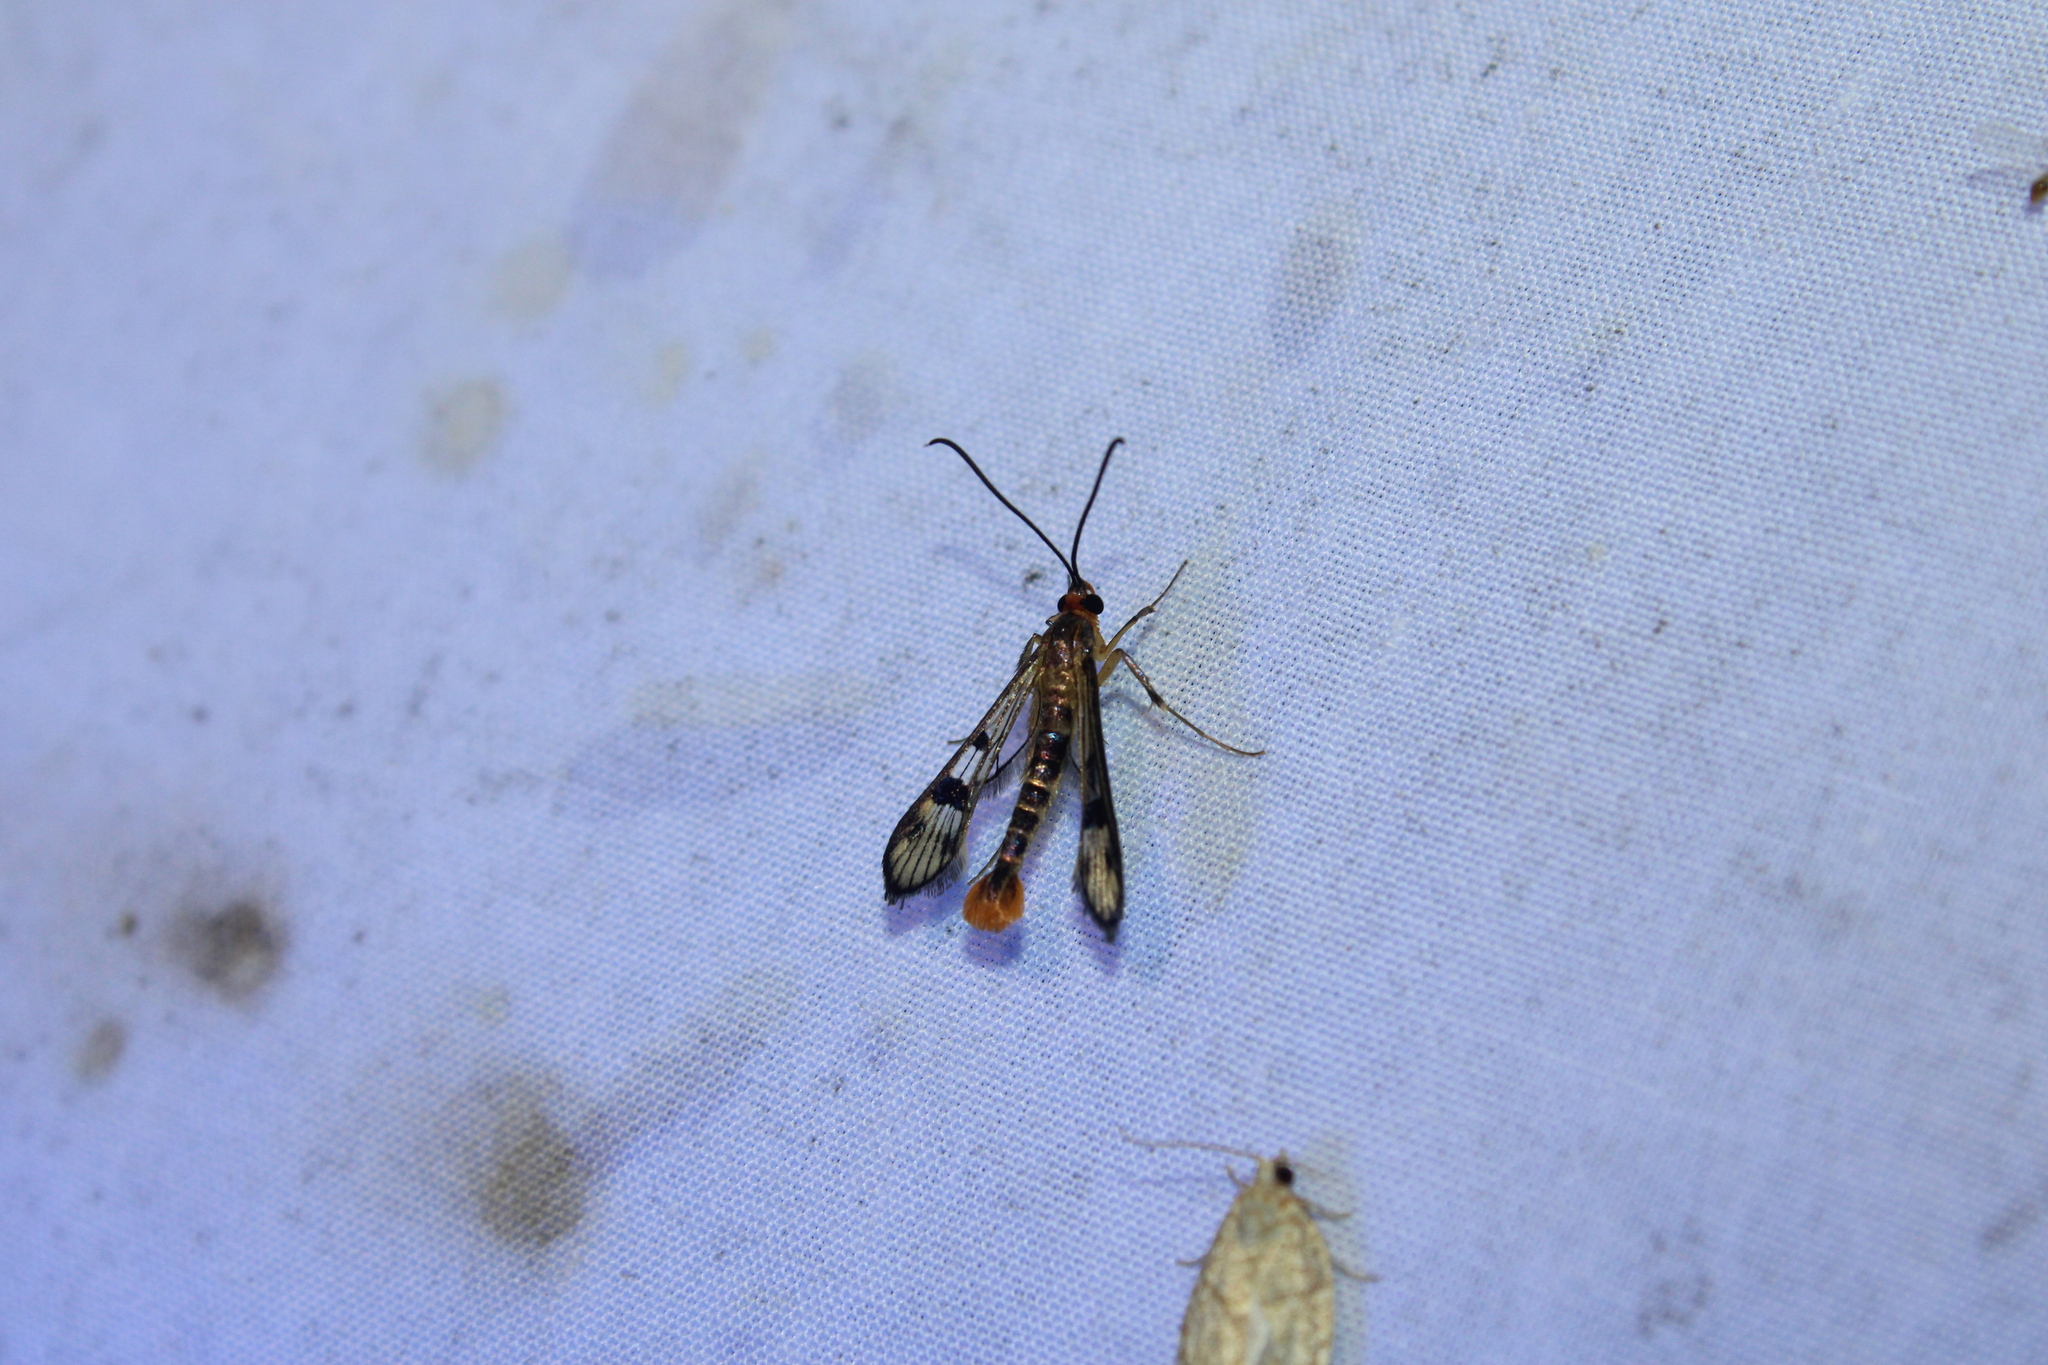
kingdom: Animalia
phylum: Arthropoda
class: Insecta
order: Lepidoptera
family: Sesiidae
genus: Synanthedon
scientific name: Synanthedon acerni
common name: Maple callus borer moth
